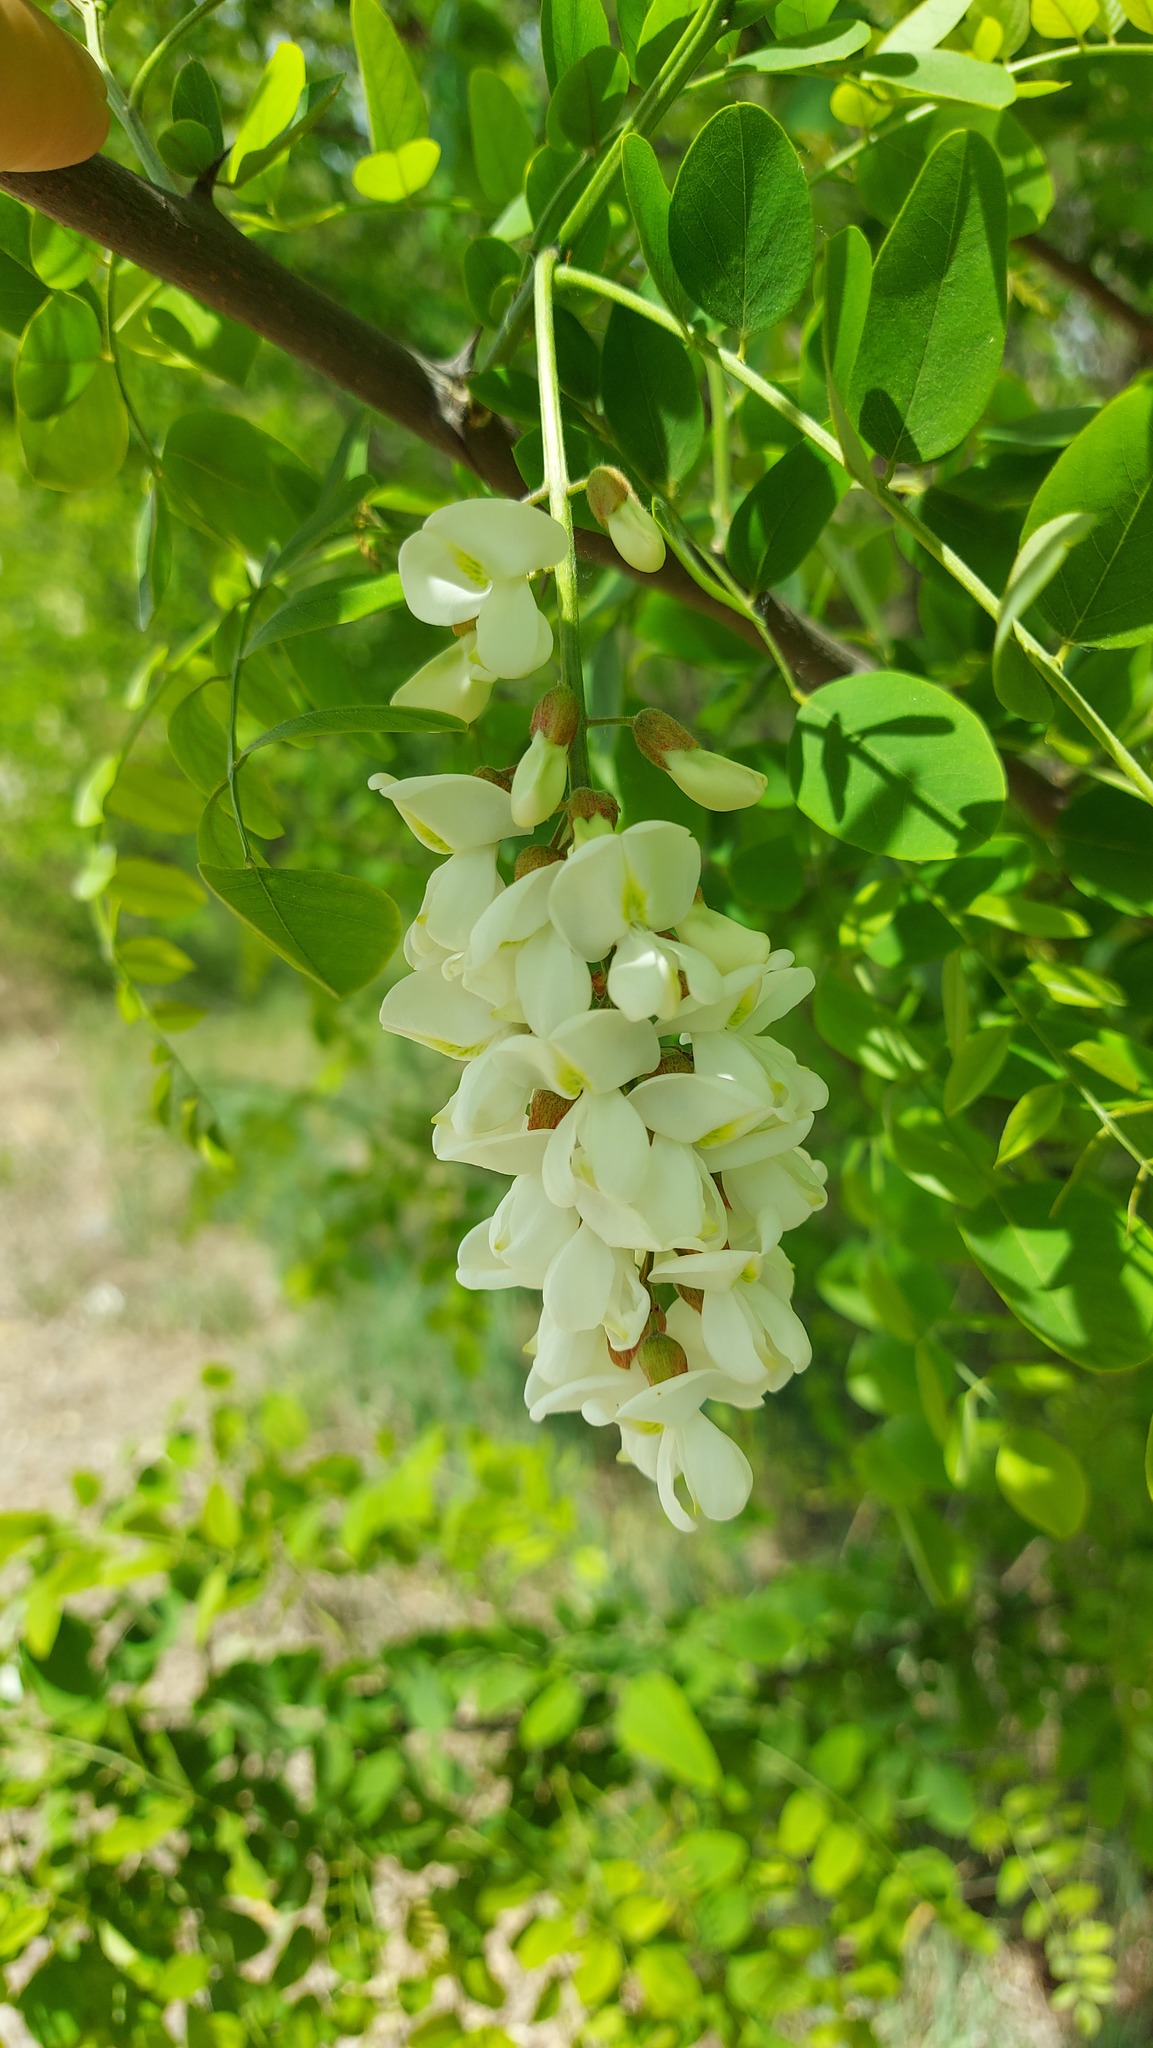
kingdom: Plantae
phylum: Tracheophyta
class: Magnoliopsida
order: Fabales
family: Fabaceae
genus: Robinia
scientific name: Robinia pseudoacacia
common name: Black locust
